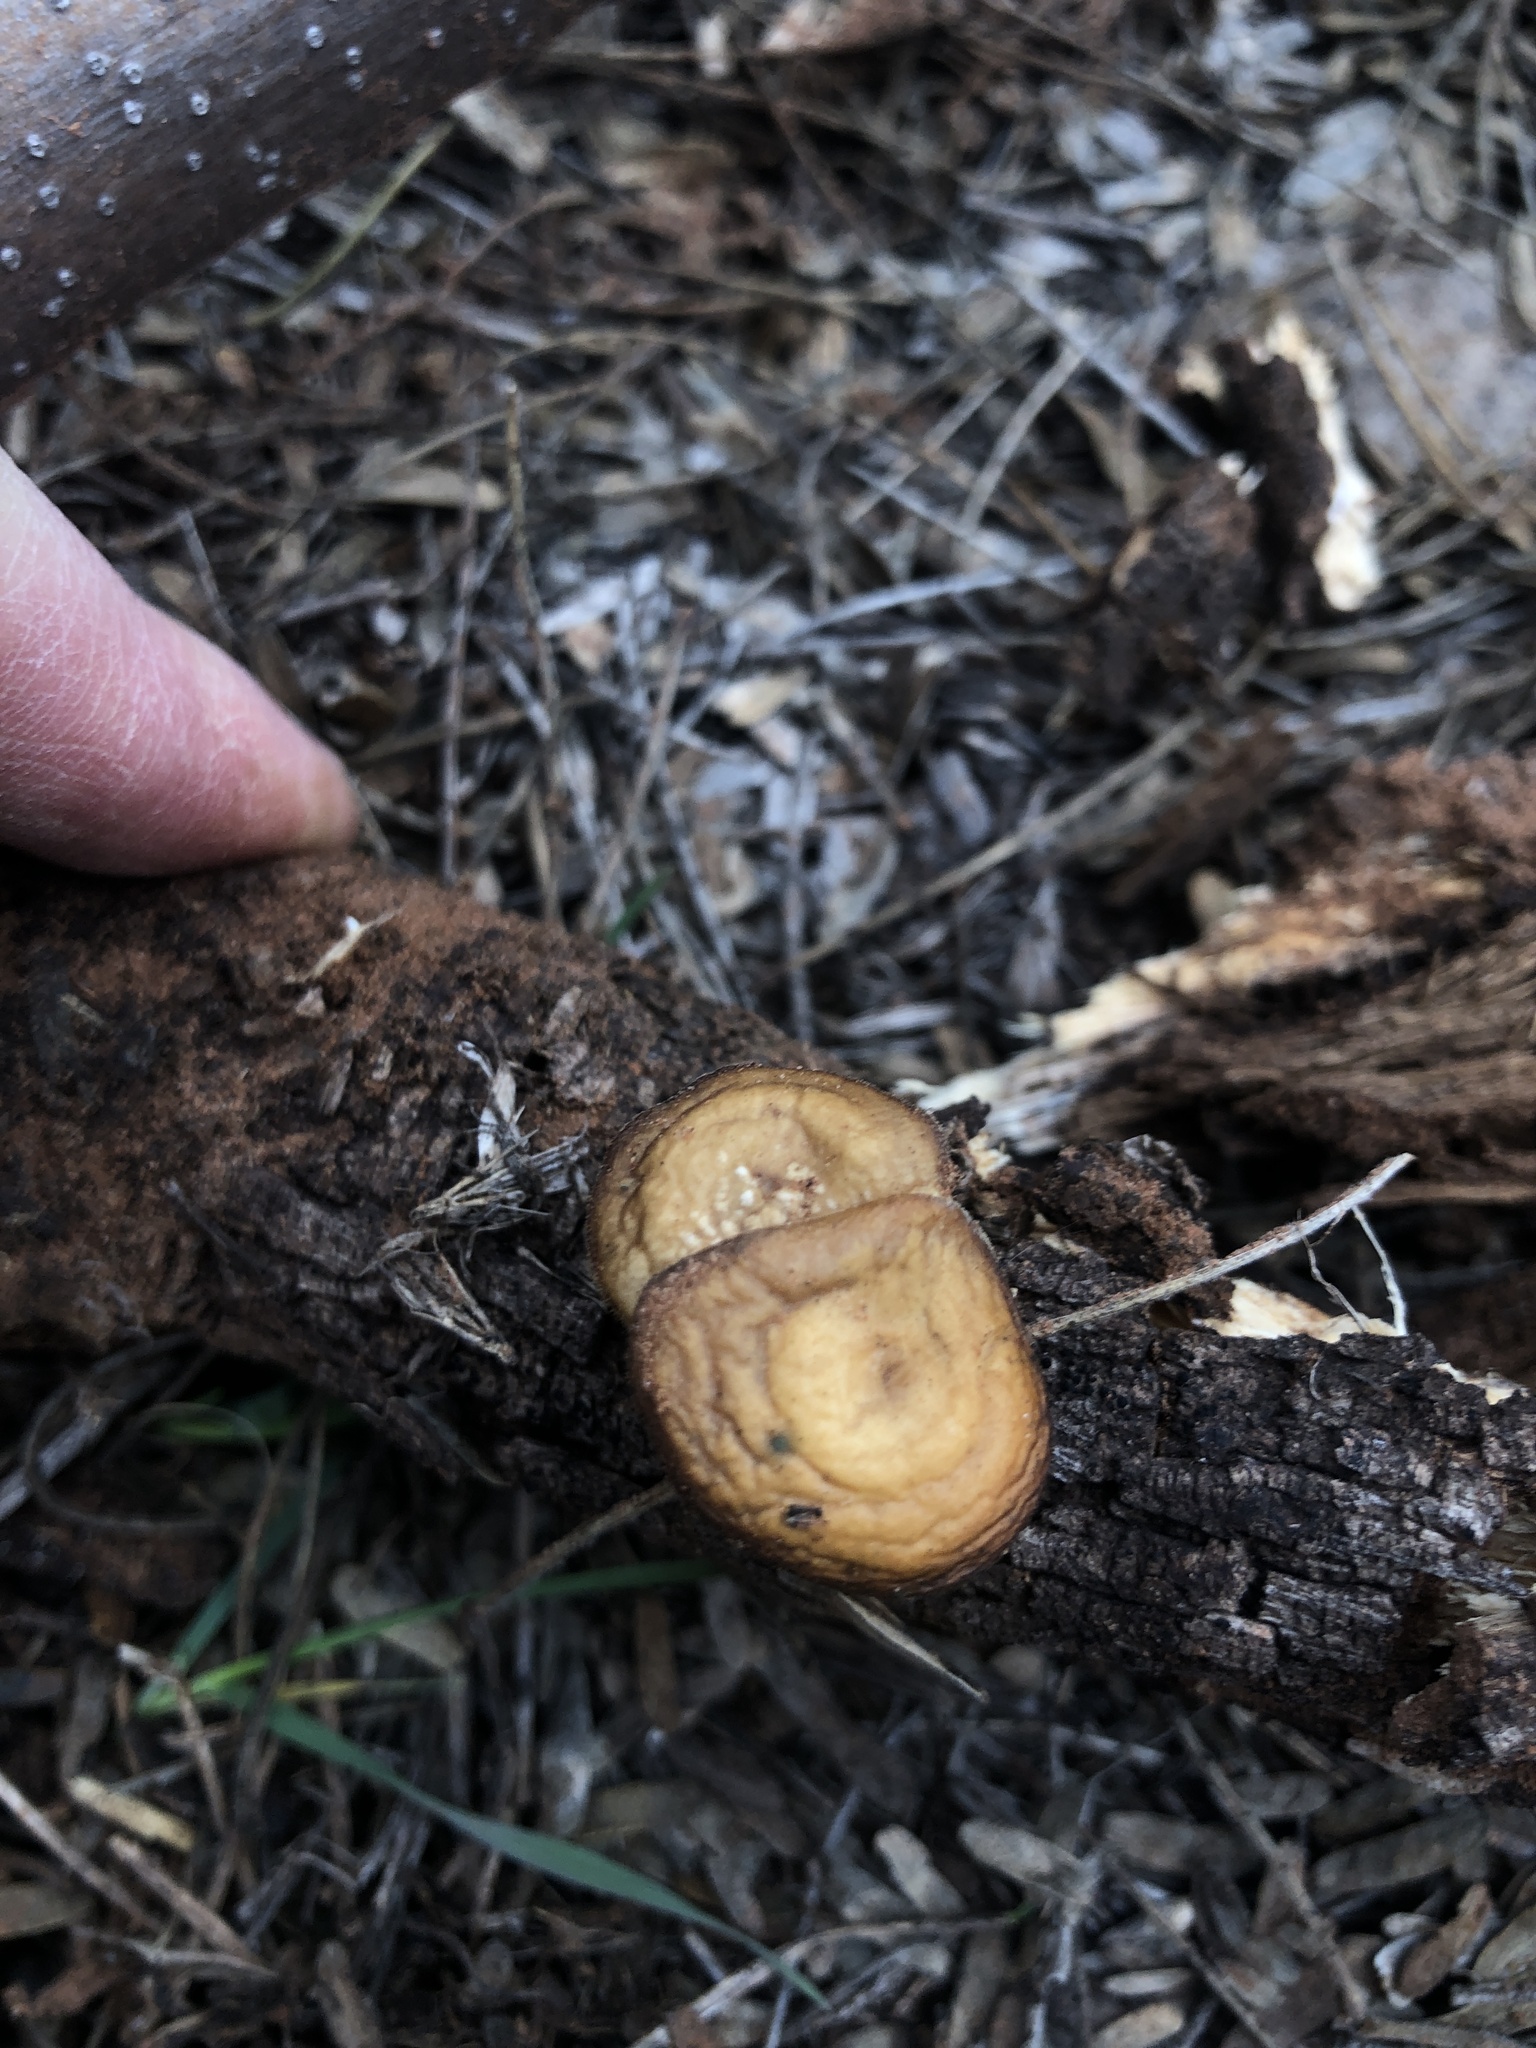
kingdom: Fungi
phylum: Basidiomycota
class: Agaricomycetes
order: Polyporales
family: Polyporaceae
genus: Lentinus
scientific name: Lentinus arcularius
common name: Spring polypore
